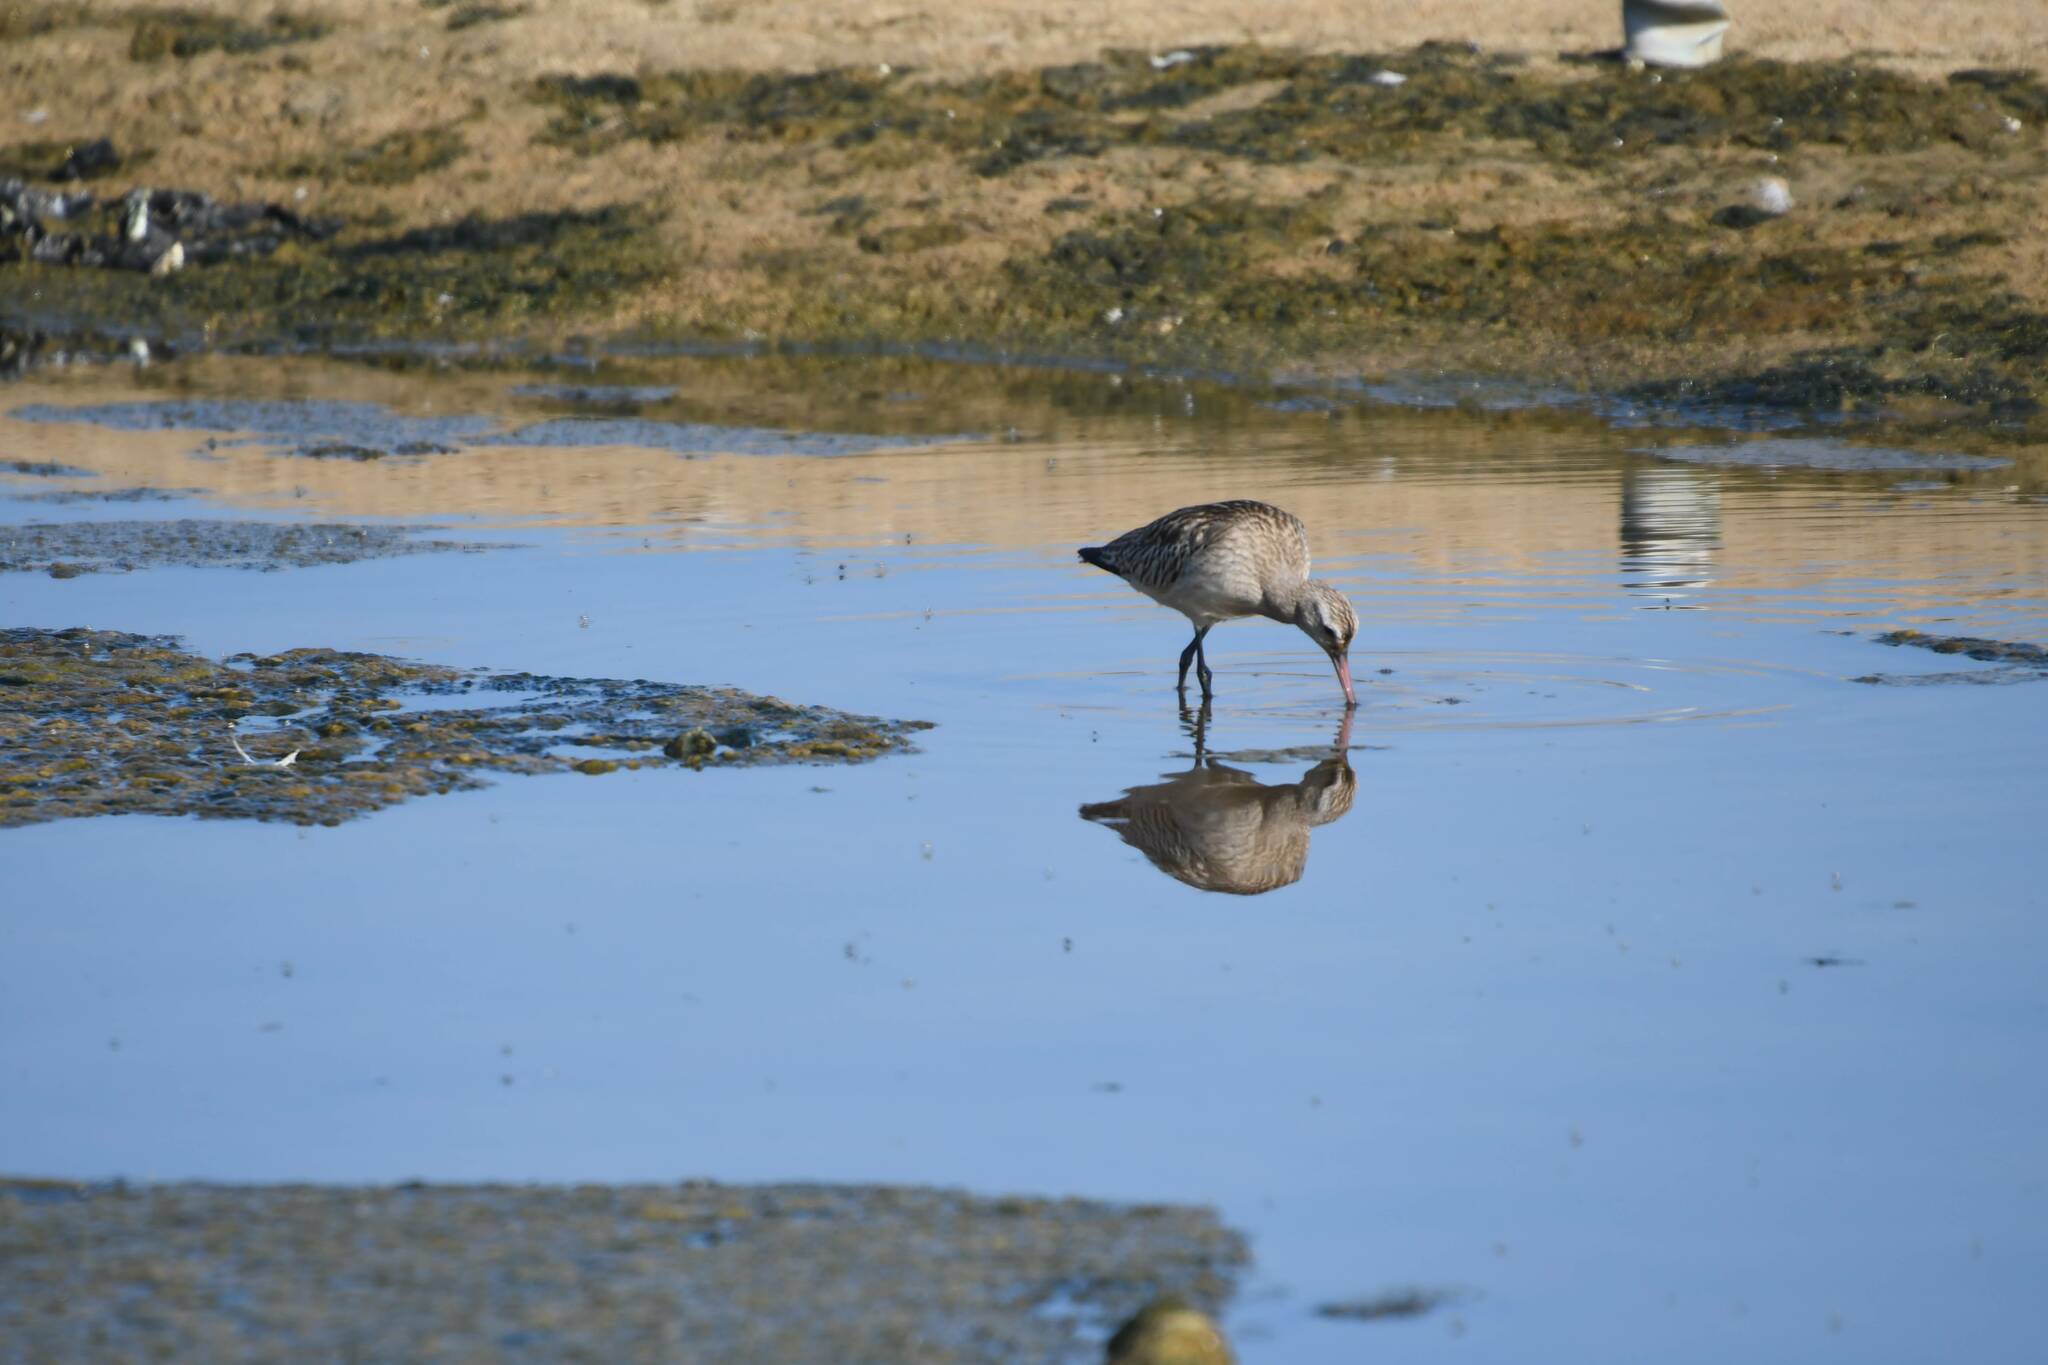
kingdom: Animalia
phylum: Chordata
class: Aves
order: Charadriiformes
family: Scolopacidae
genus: Limosa
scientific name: Limosa lapponica
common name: Bar-tailed godwit
